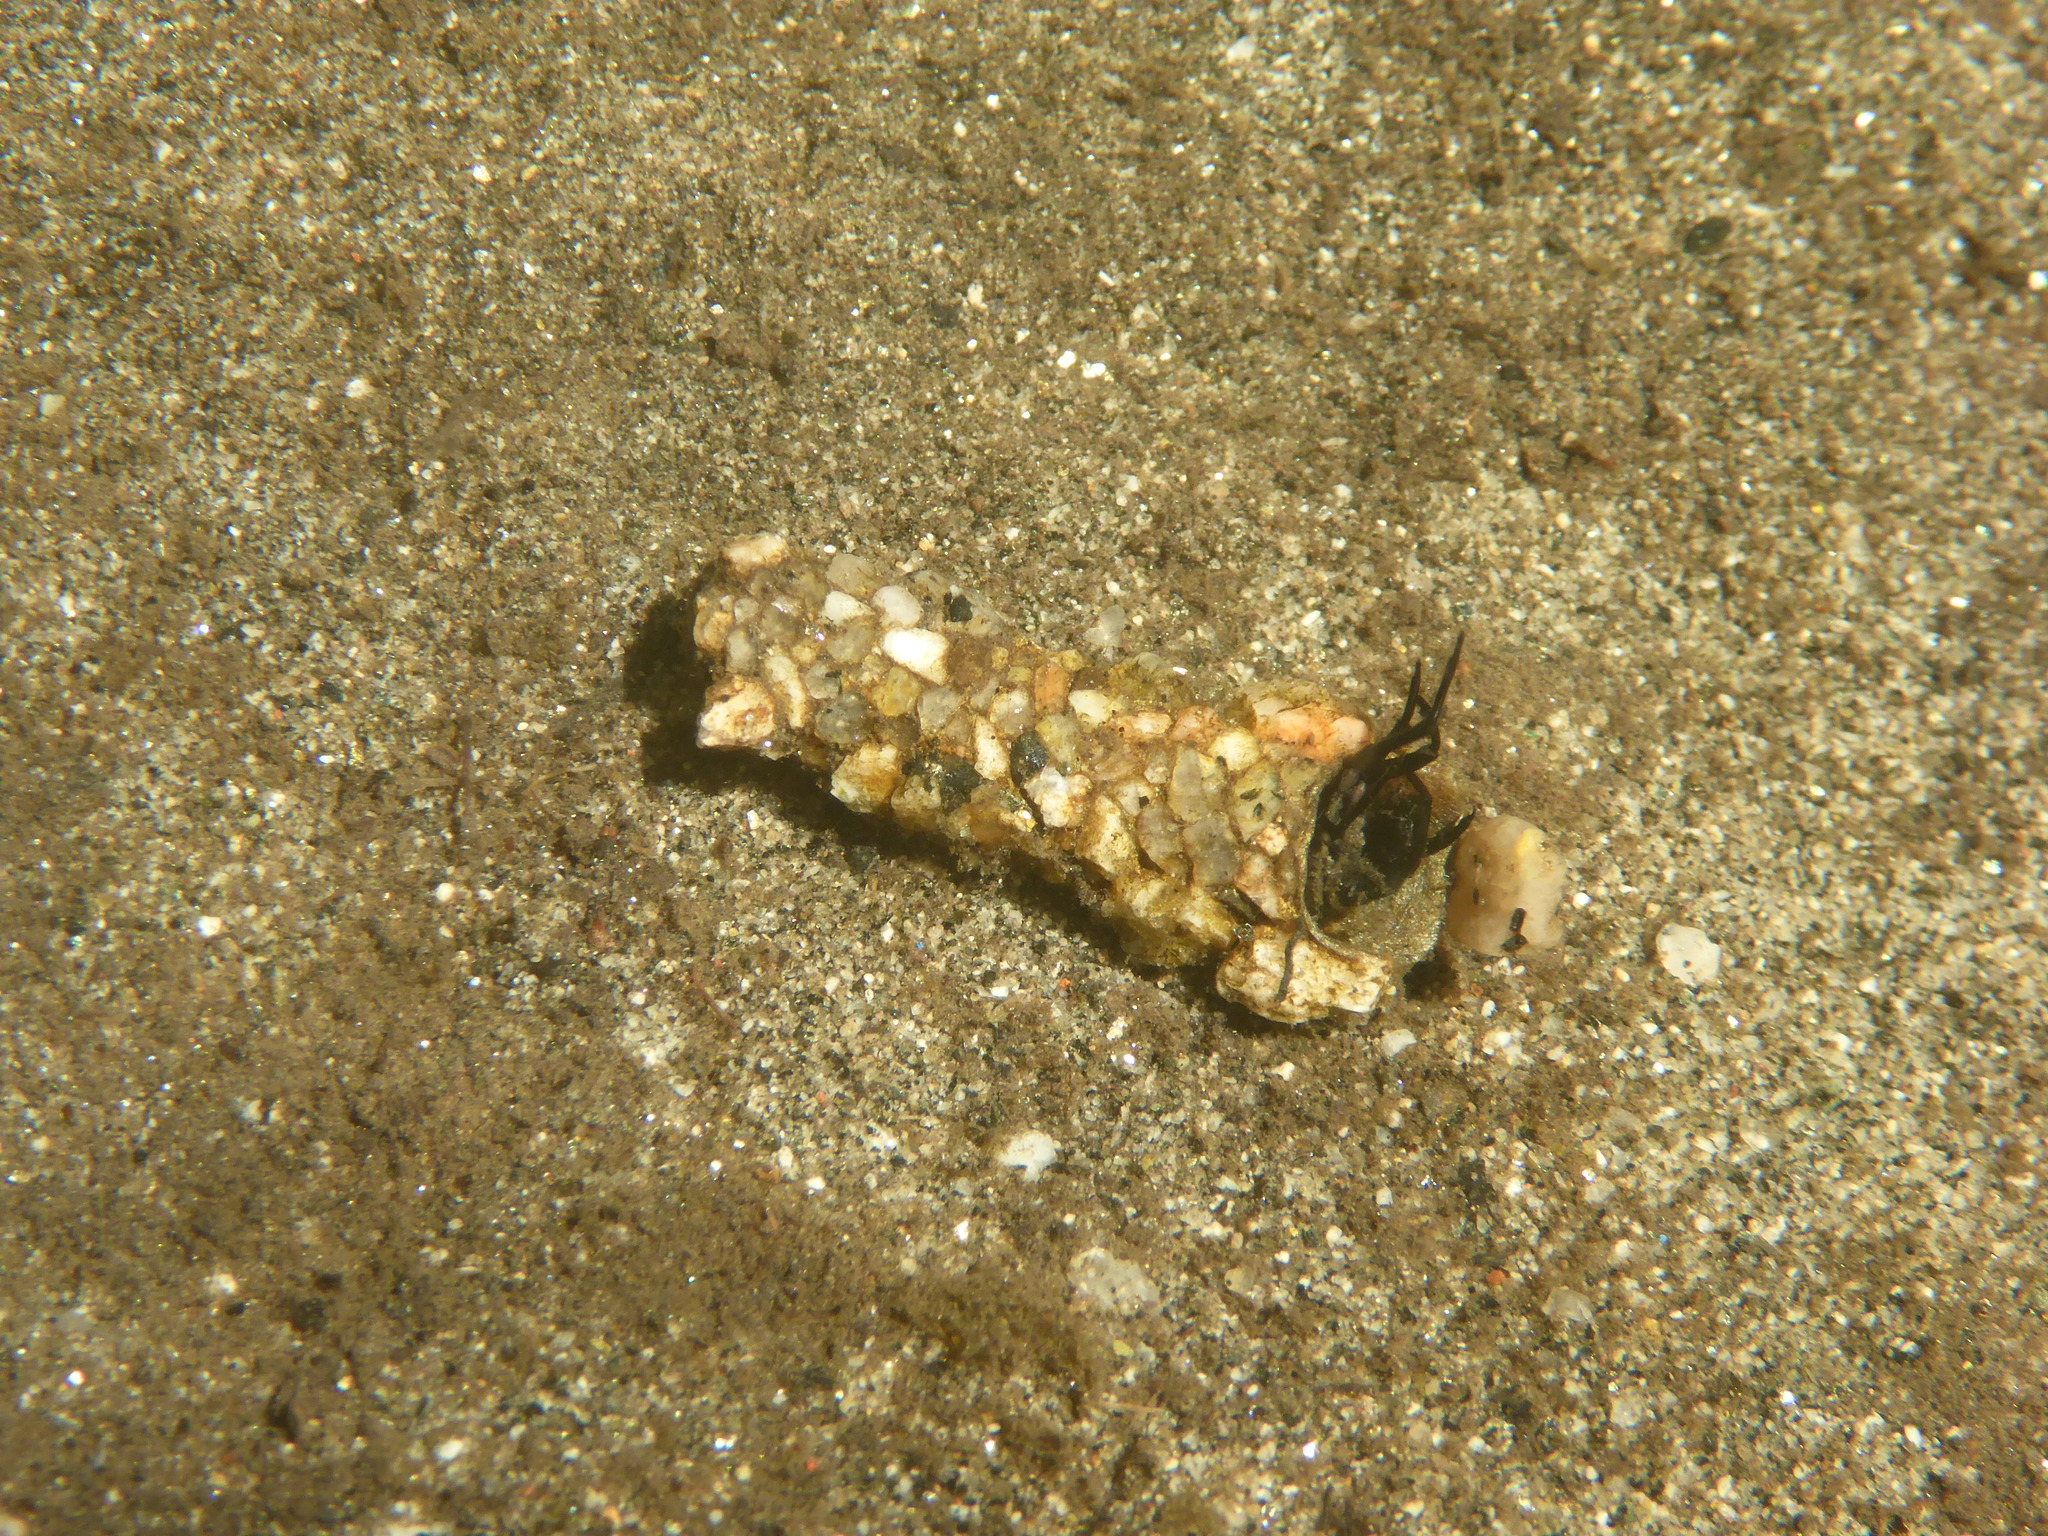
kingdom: Animalia
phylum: Arthropoda
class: Malacostraca
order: Decapoda
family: Cambaridae
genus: Faxonius
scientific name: Faxonius neglectus
